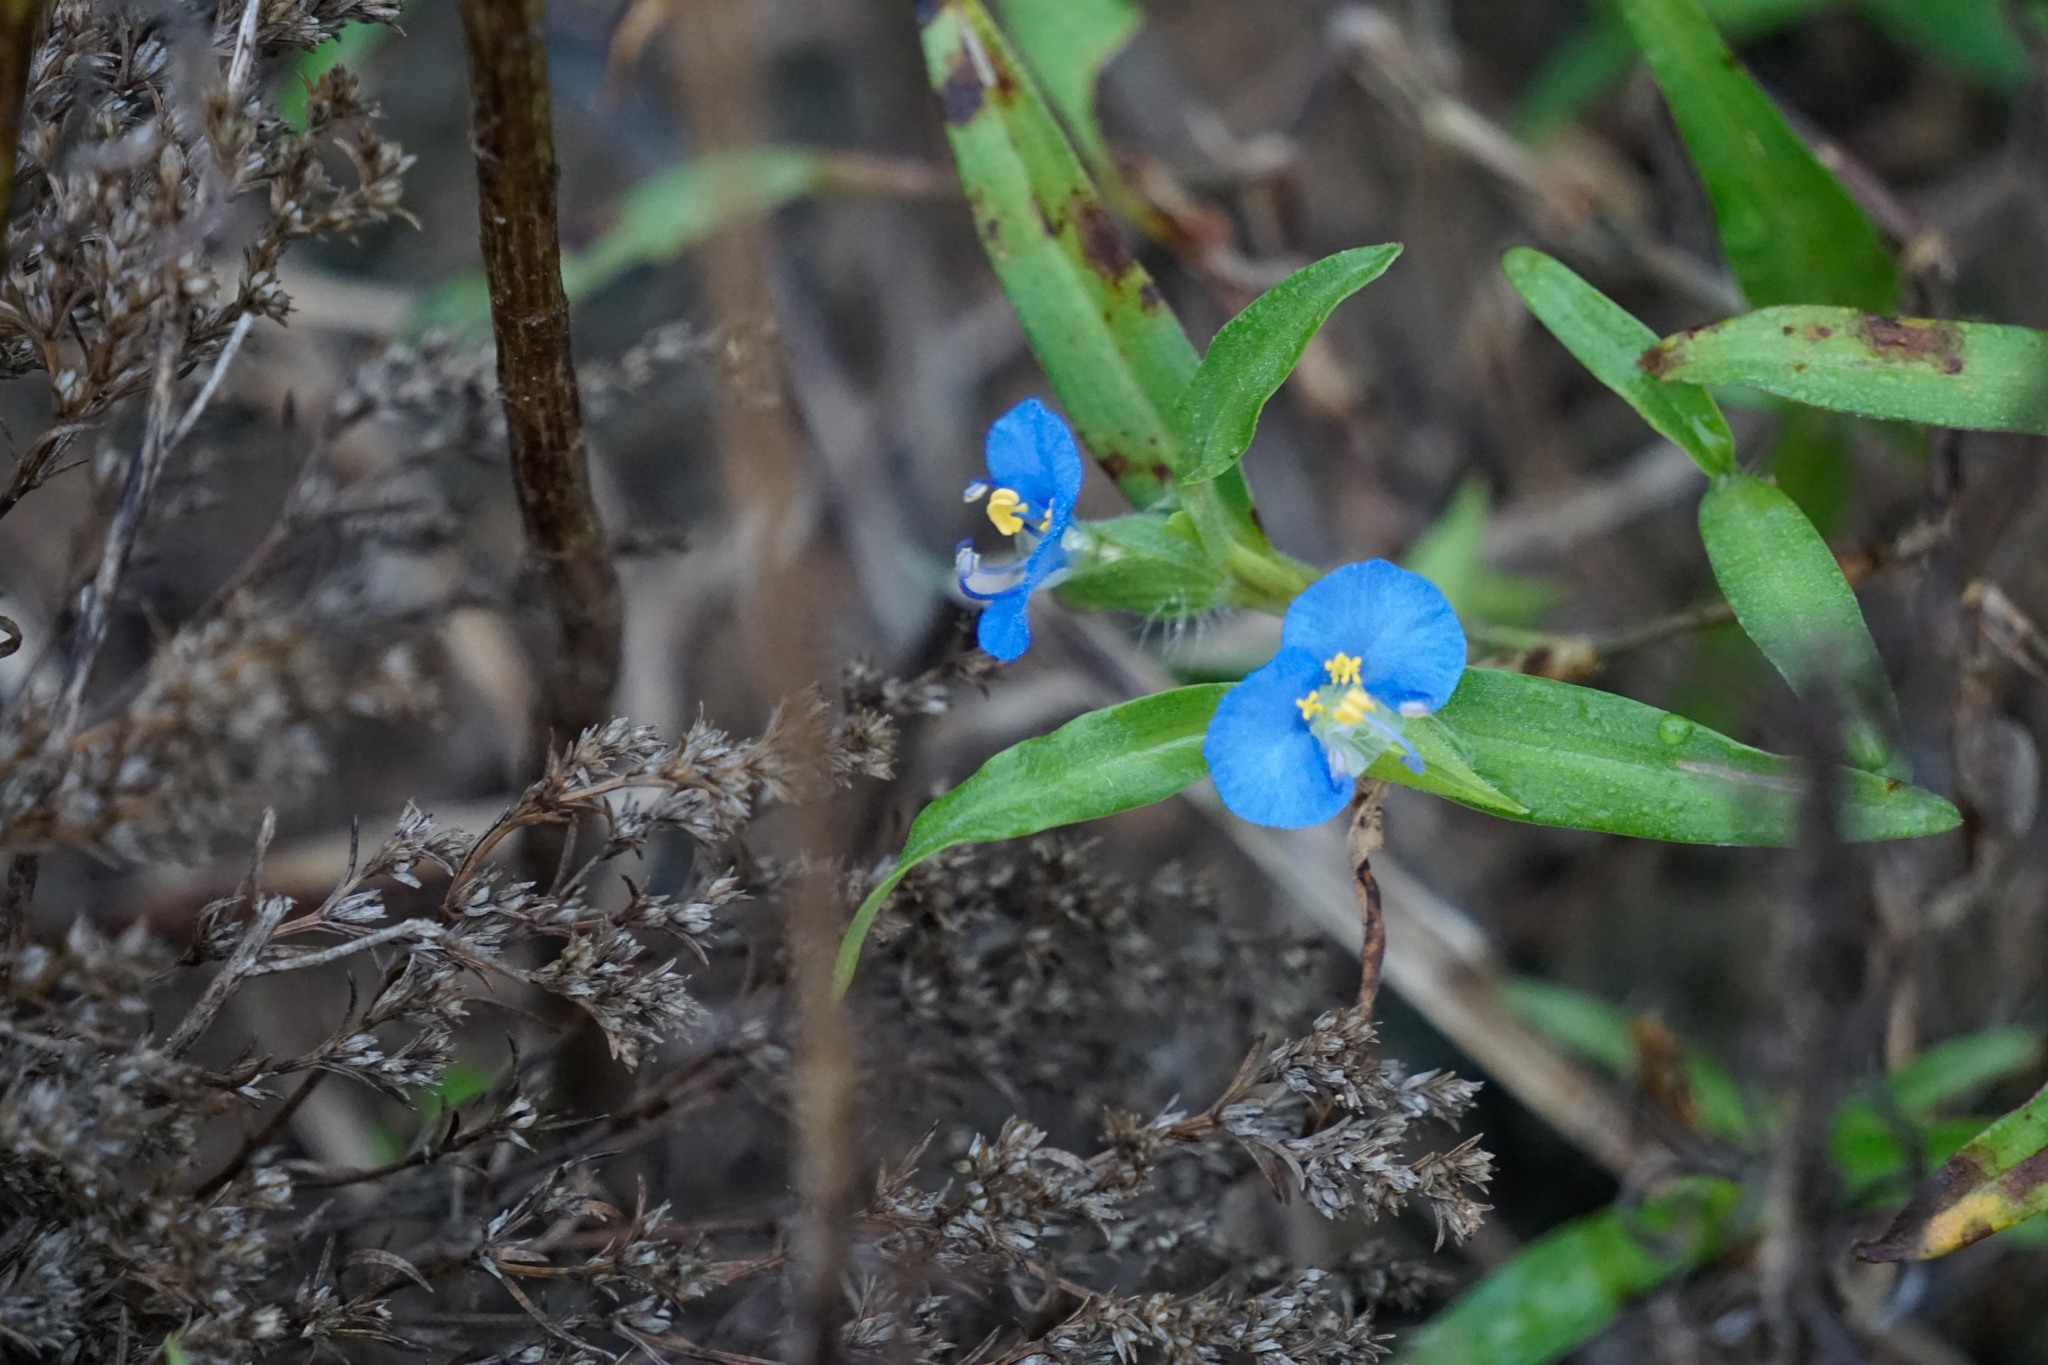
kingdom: Plantae
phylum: Tracheophyta
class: Liliopsida
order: Commelinales
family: Commelinaceae
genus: Commelina
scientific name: Commelina erecta
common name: Blousel blommetjie
